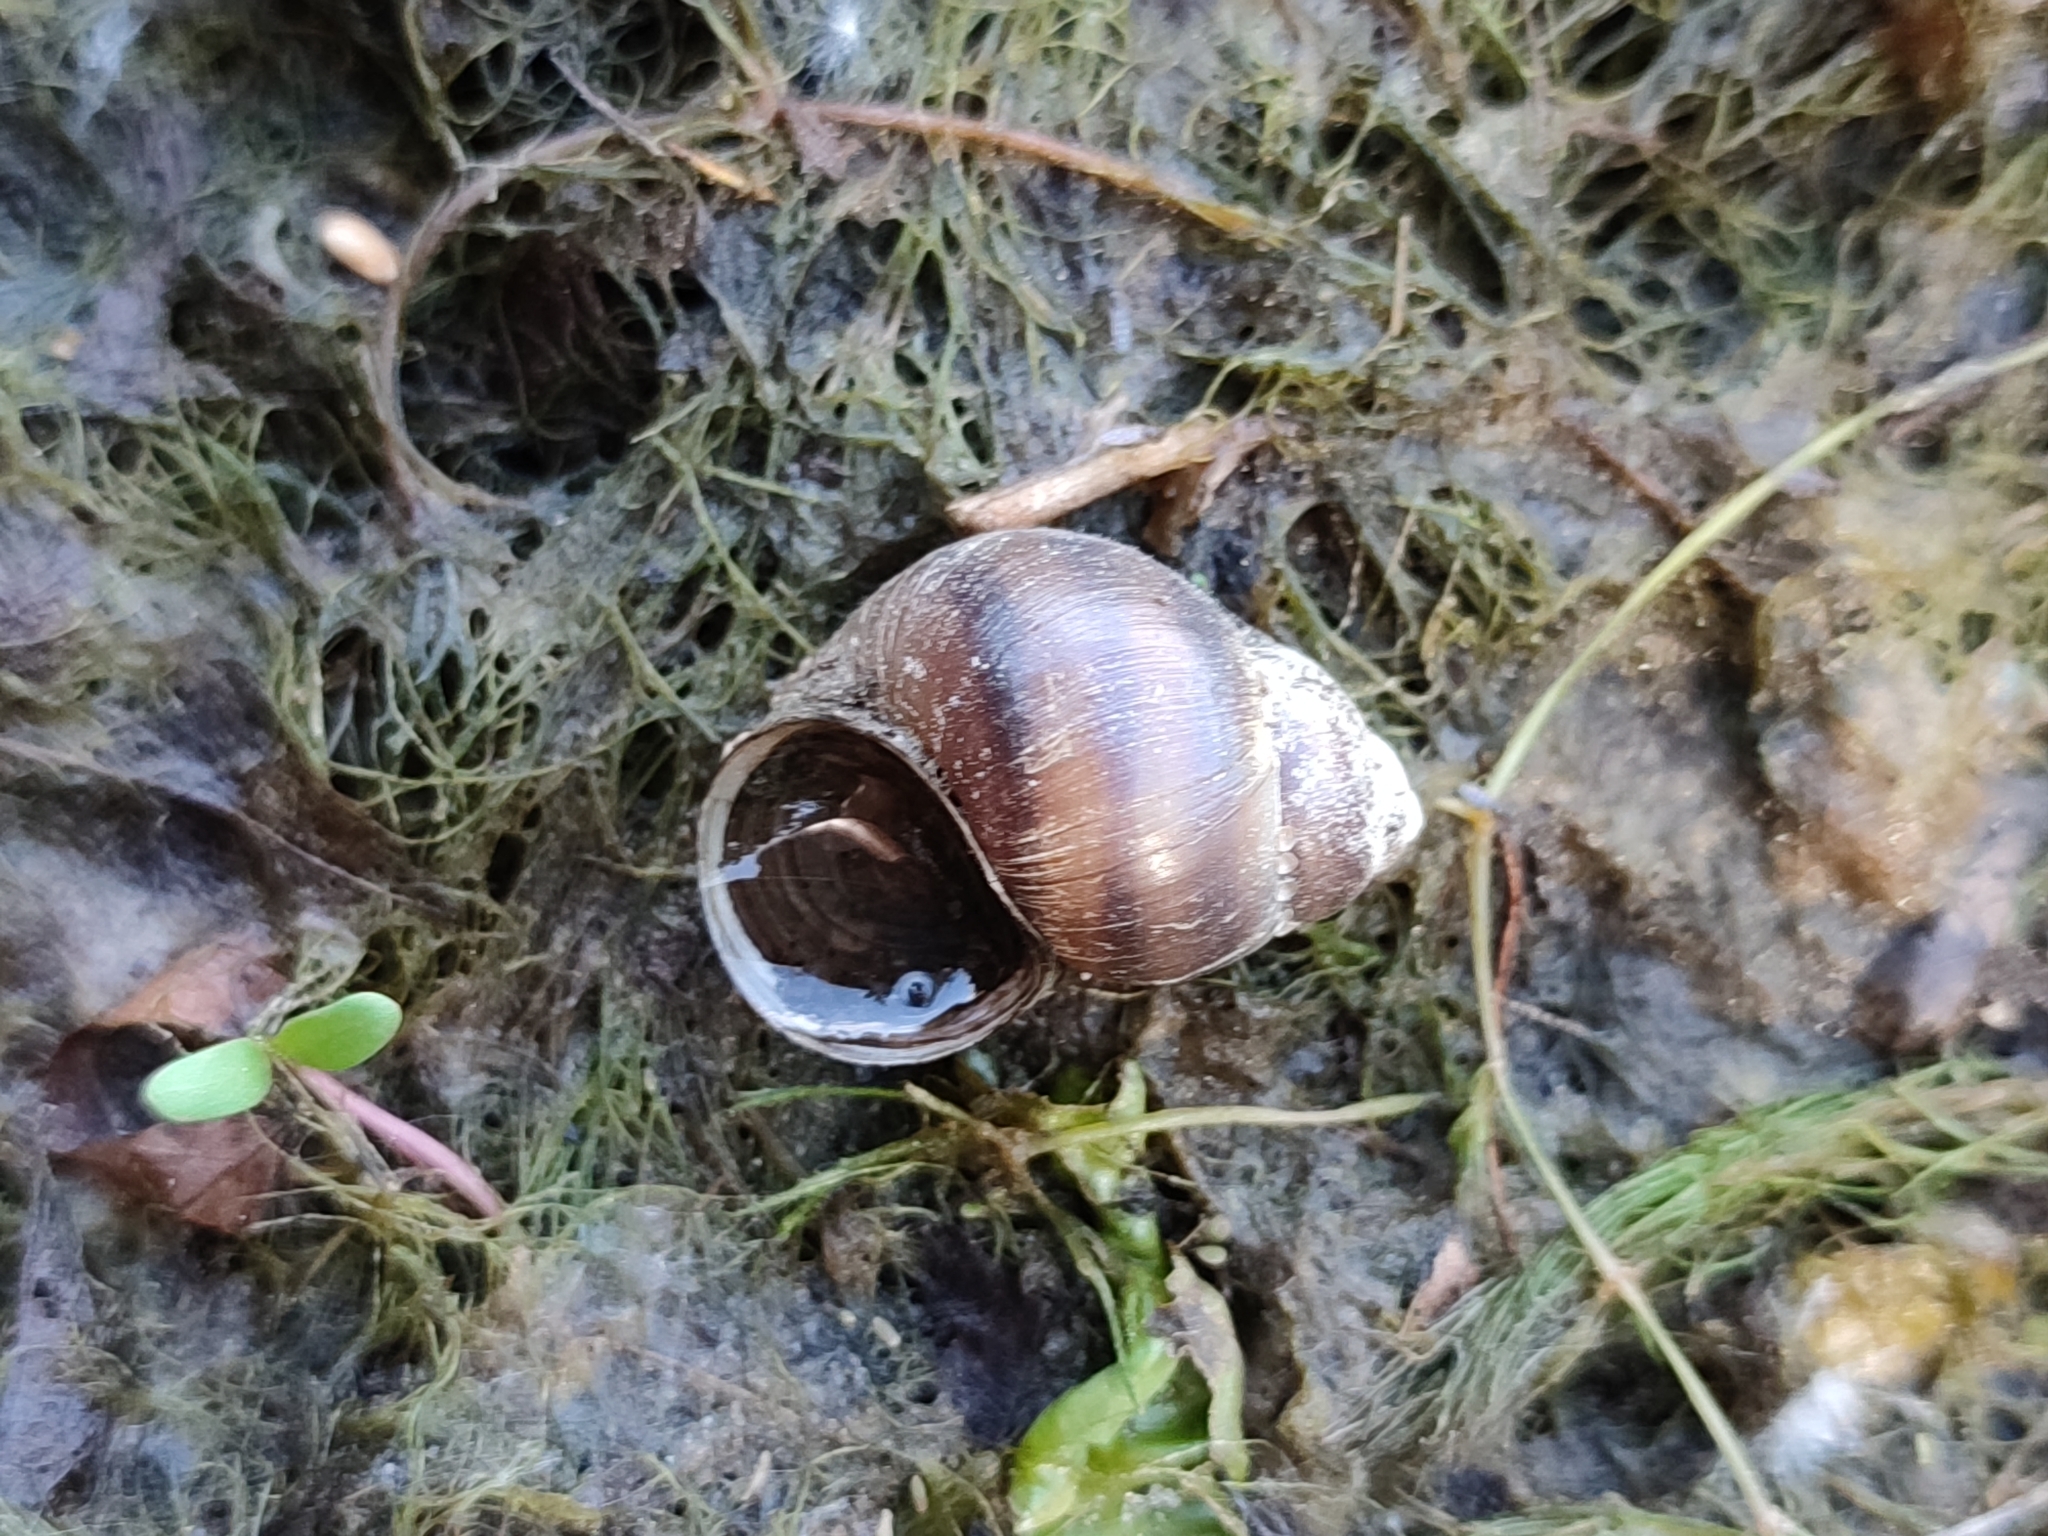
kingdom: Animalia
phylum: Mollusca
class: Gastropoda
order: Architaenioglossa
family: Viviparidae
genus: Viviparus
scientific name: Viviparus viviparus
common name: River snail
